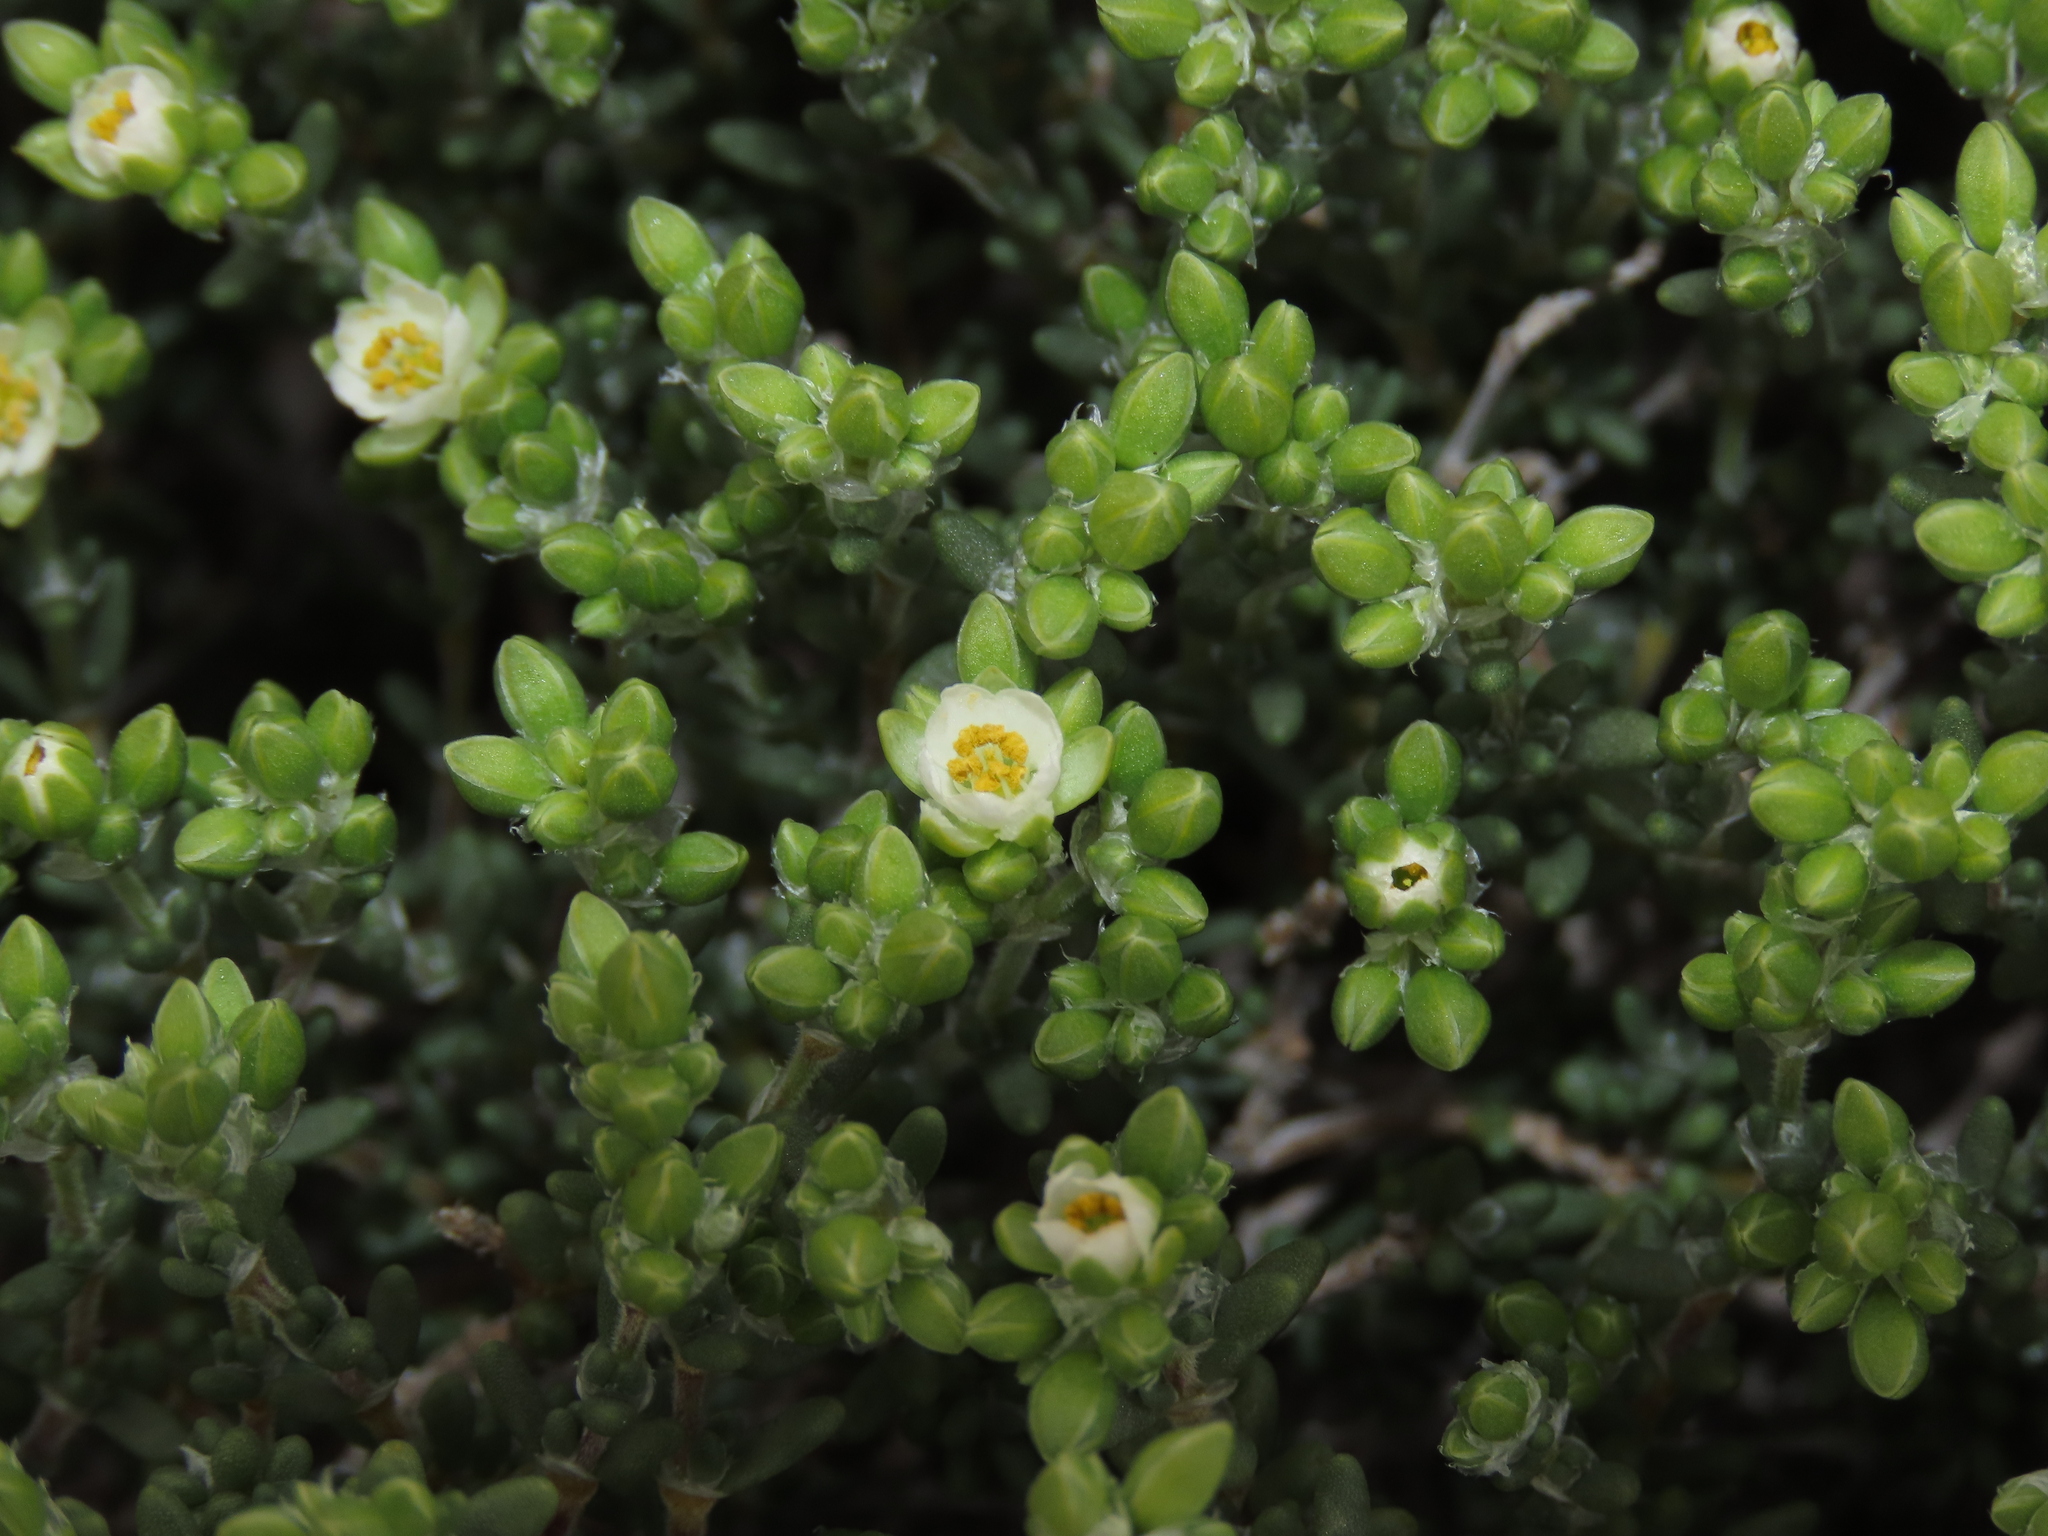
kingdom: Plantae
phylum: Tracheophyta
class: Magnoliopsida
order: Caryophyllales
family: Caryophyllaceae
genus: Spergularia
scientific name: Spergularia arbuscula
